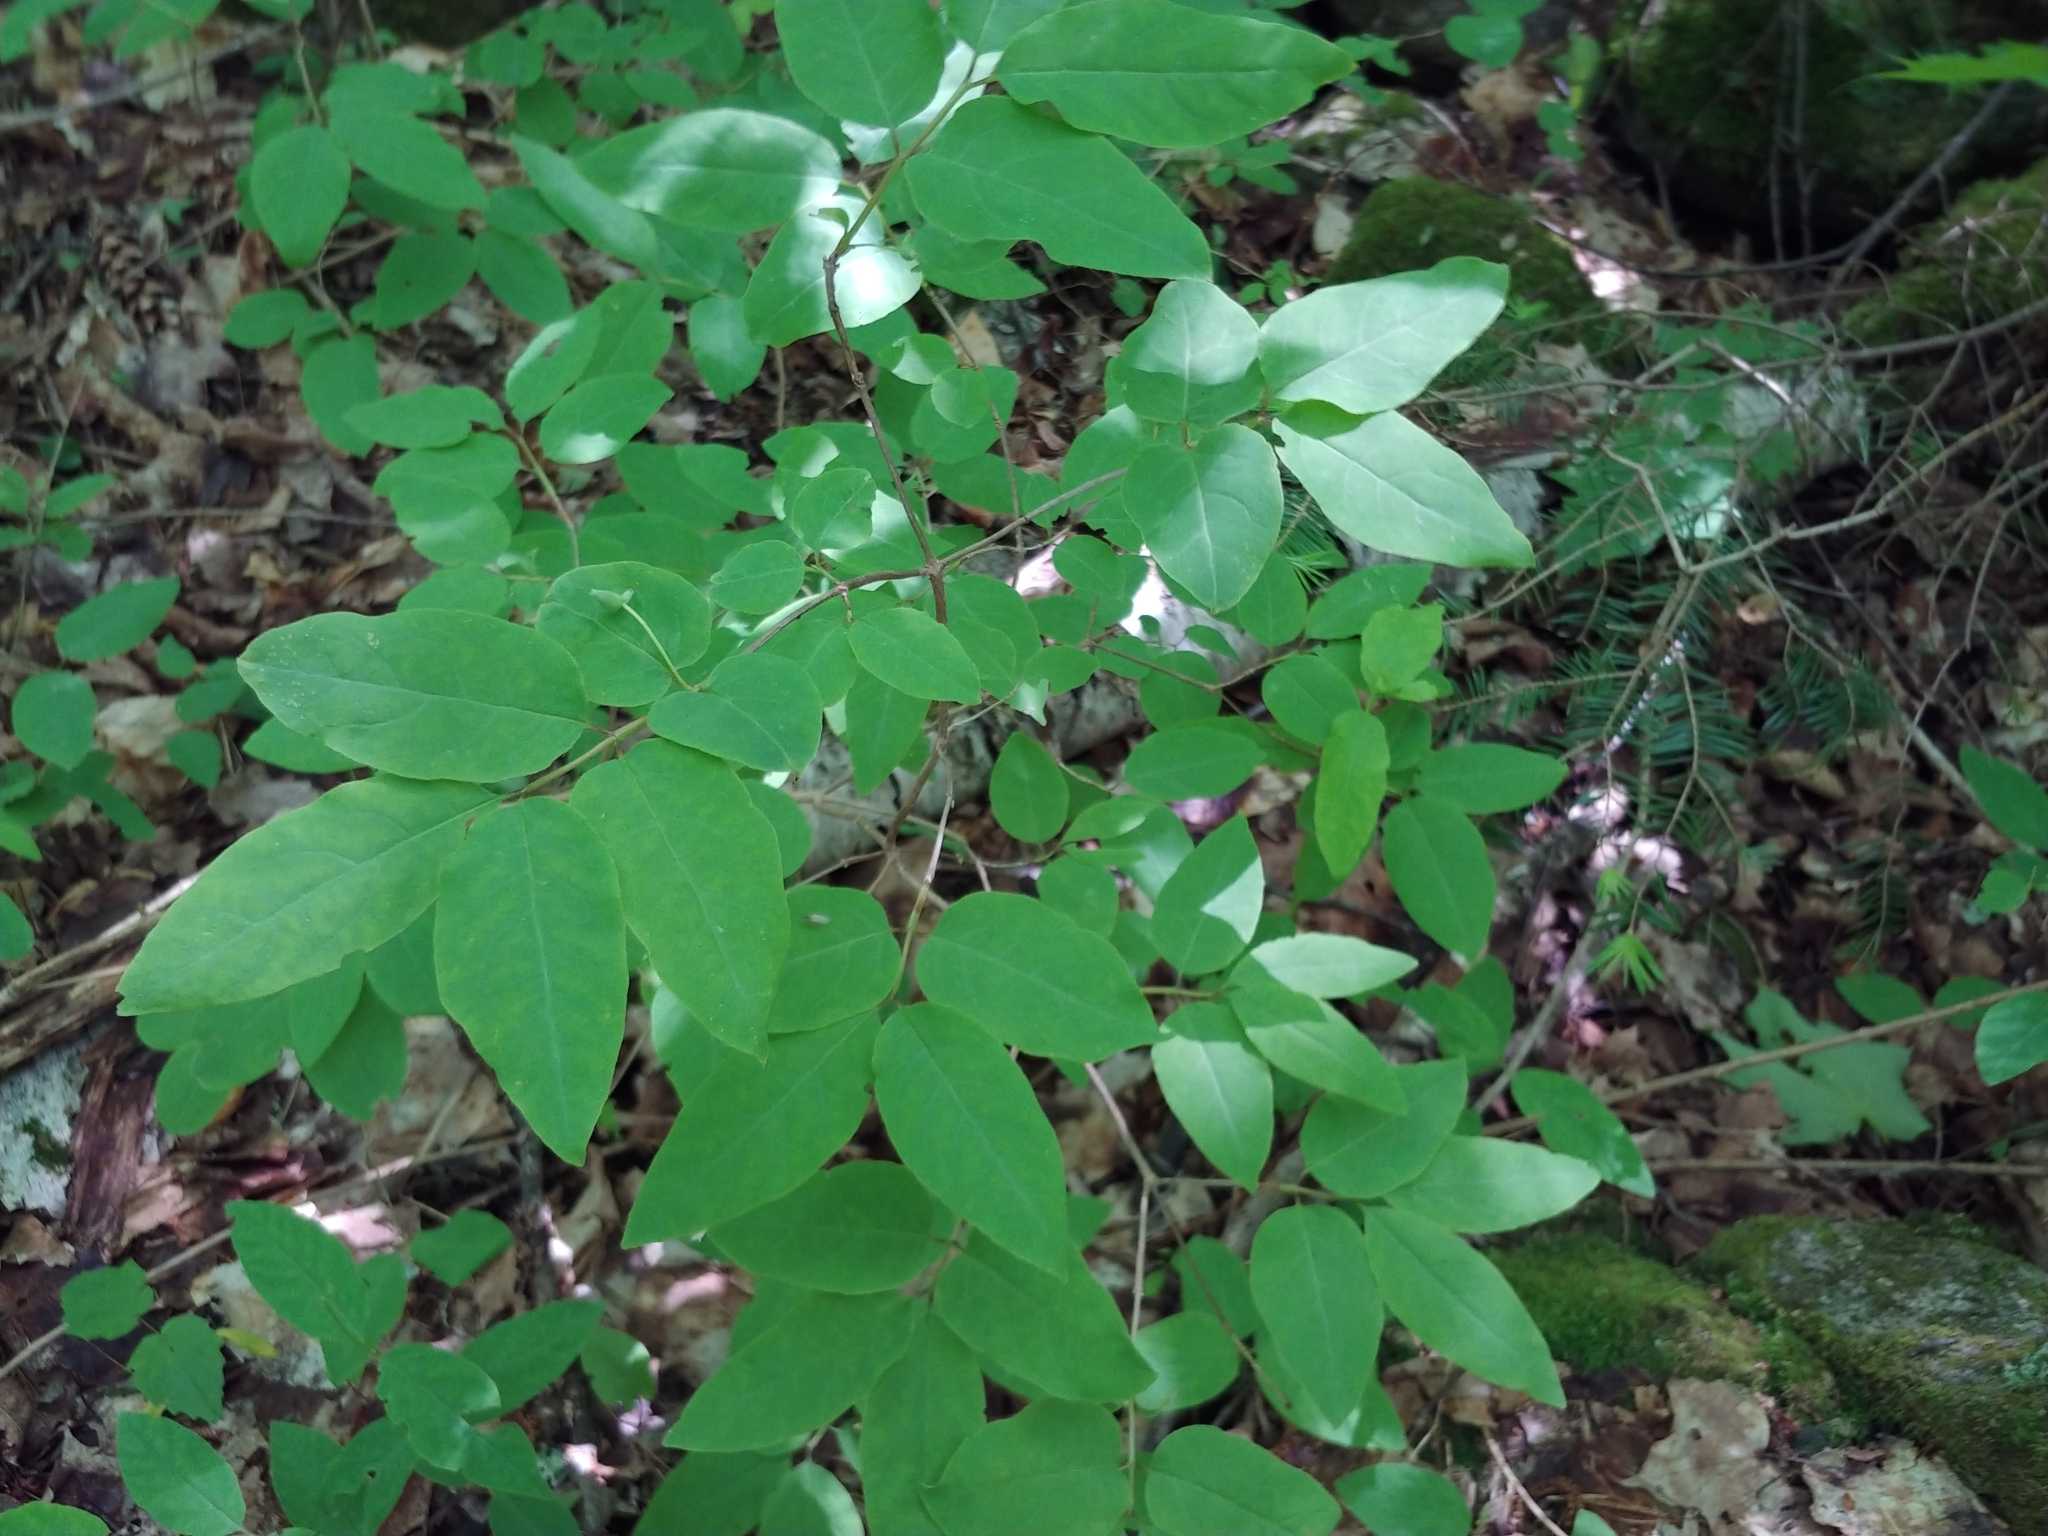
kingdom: Plantae
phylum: Tracheophyta
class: Magnoliopsida
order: Dipsacales
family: Caprifoliaceae
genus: Lonicera
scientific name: Lonicera canadensis
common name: American fly-honeysuckle
